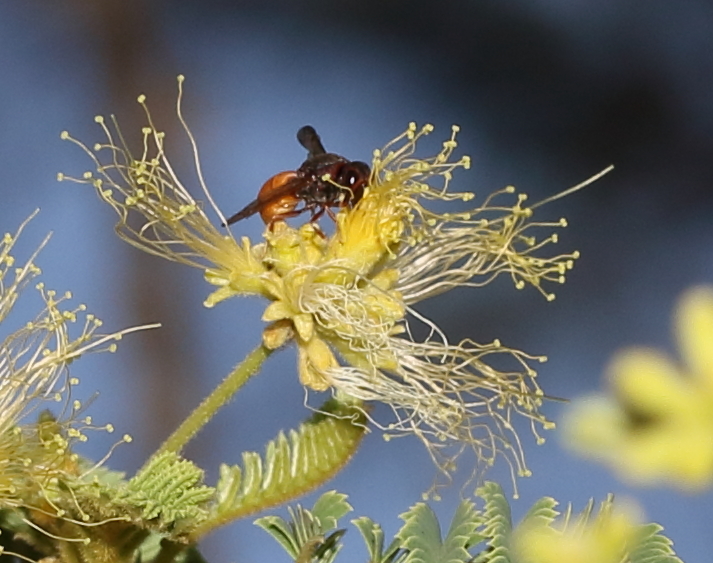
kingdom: Animalia
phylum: Arthropoda
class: Insecta
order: Hymenoptera
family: Eumenidae
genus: Tricarinodynerus
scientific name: Tricarinodynerus
